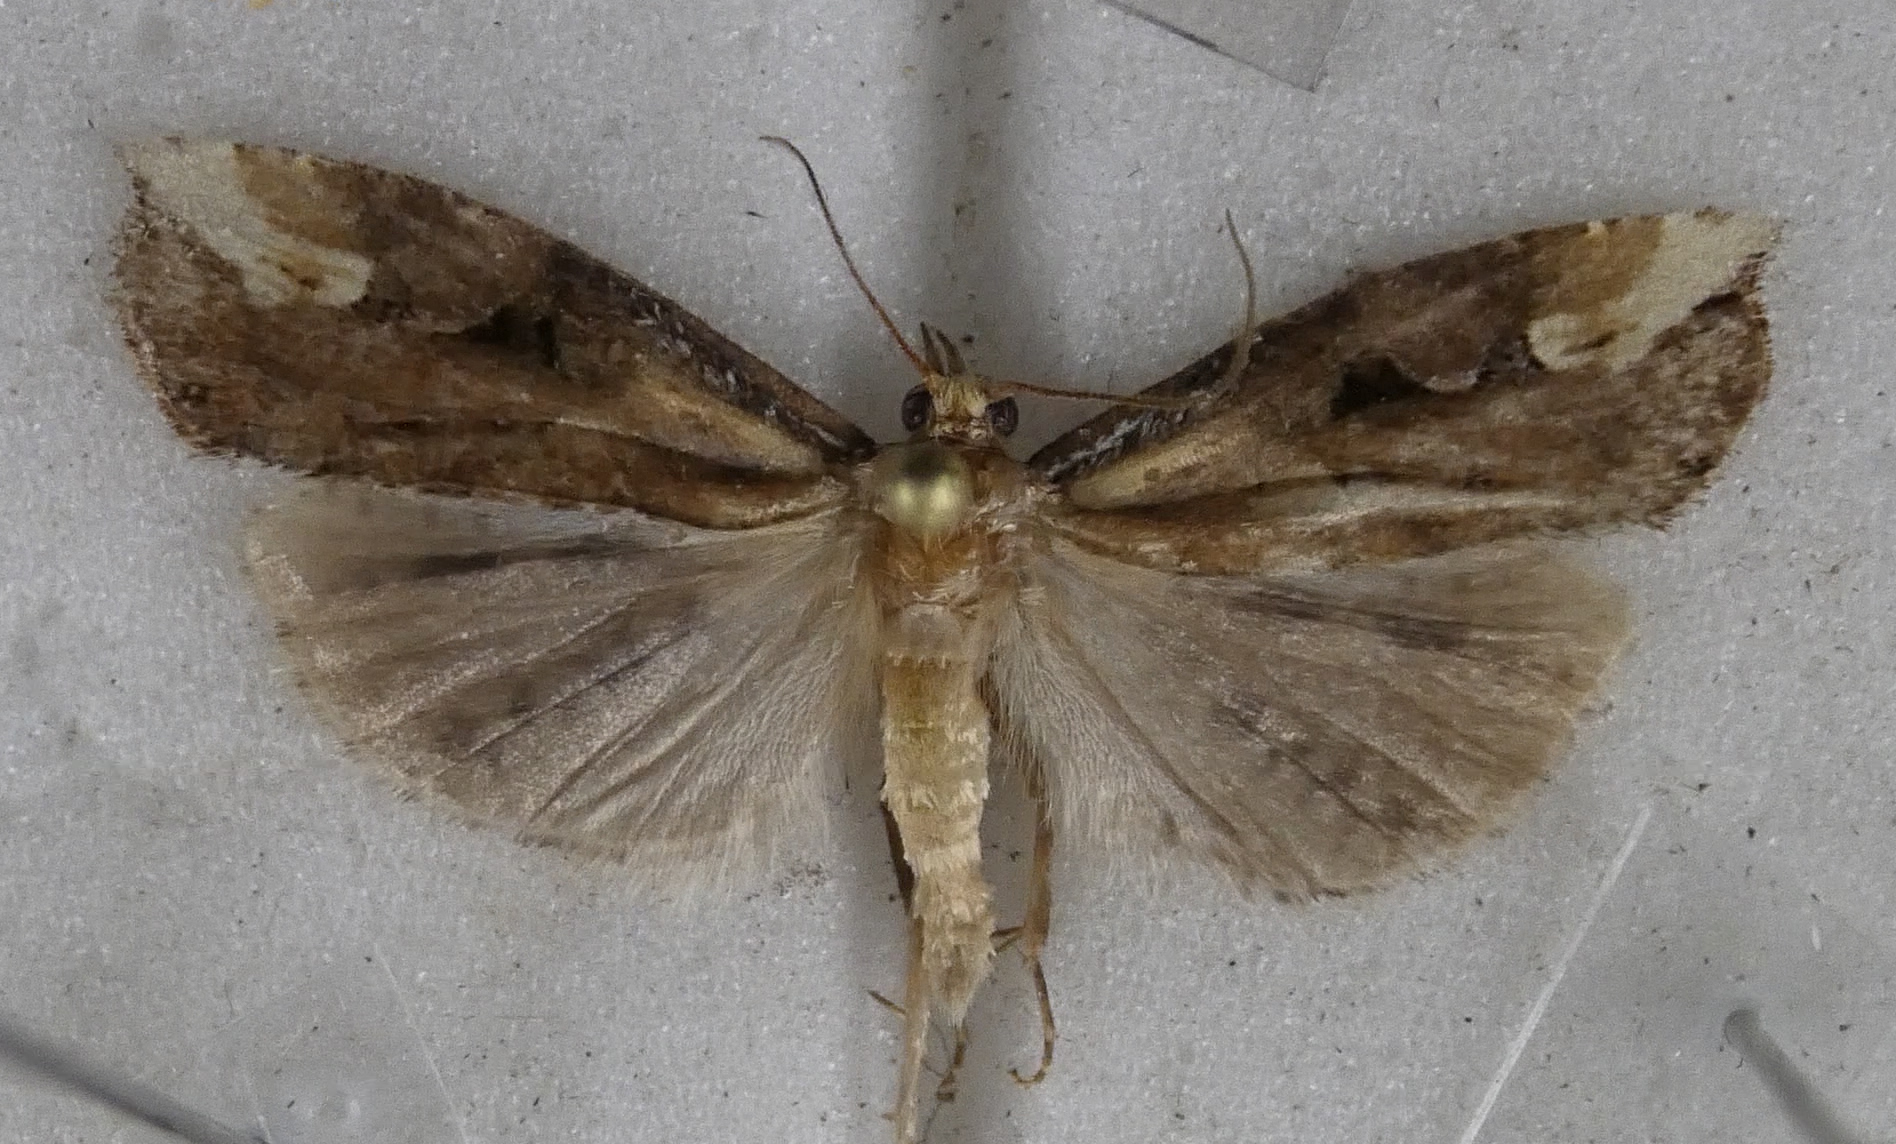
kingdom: Animalia
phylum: Arthropoda
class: Insecta
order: Lepidoptera
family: Tortricidae
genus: Epalxiphora
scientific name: Epalxiphora axenana
